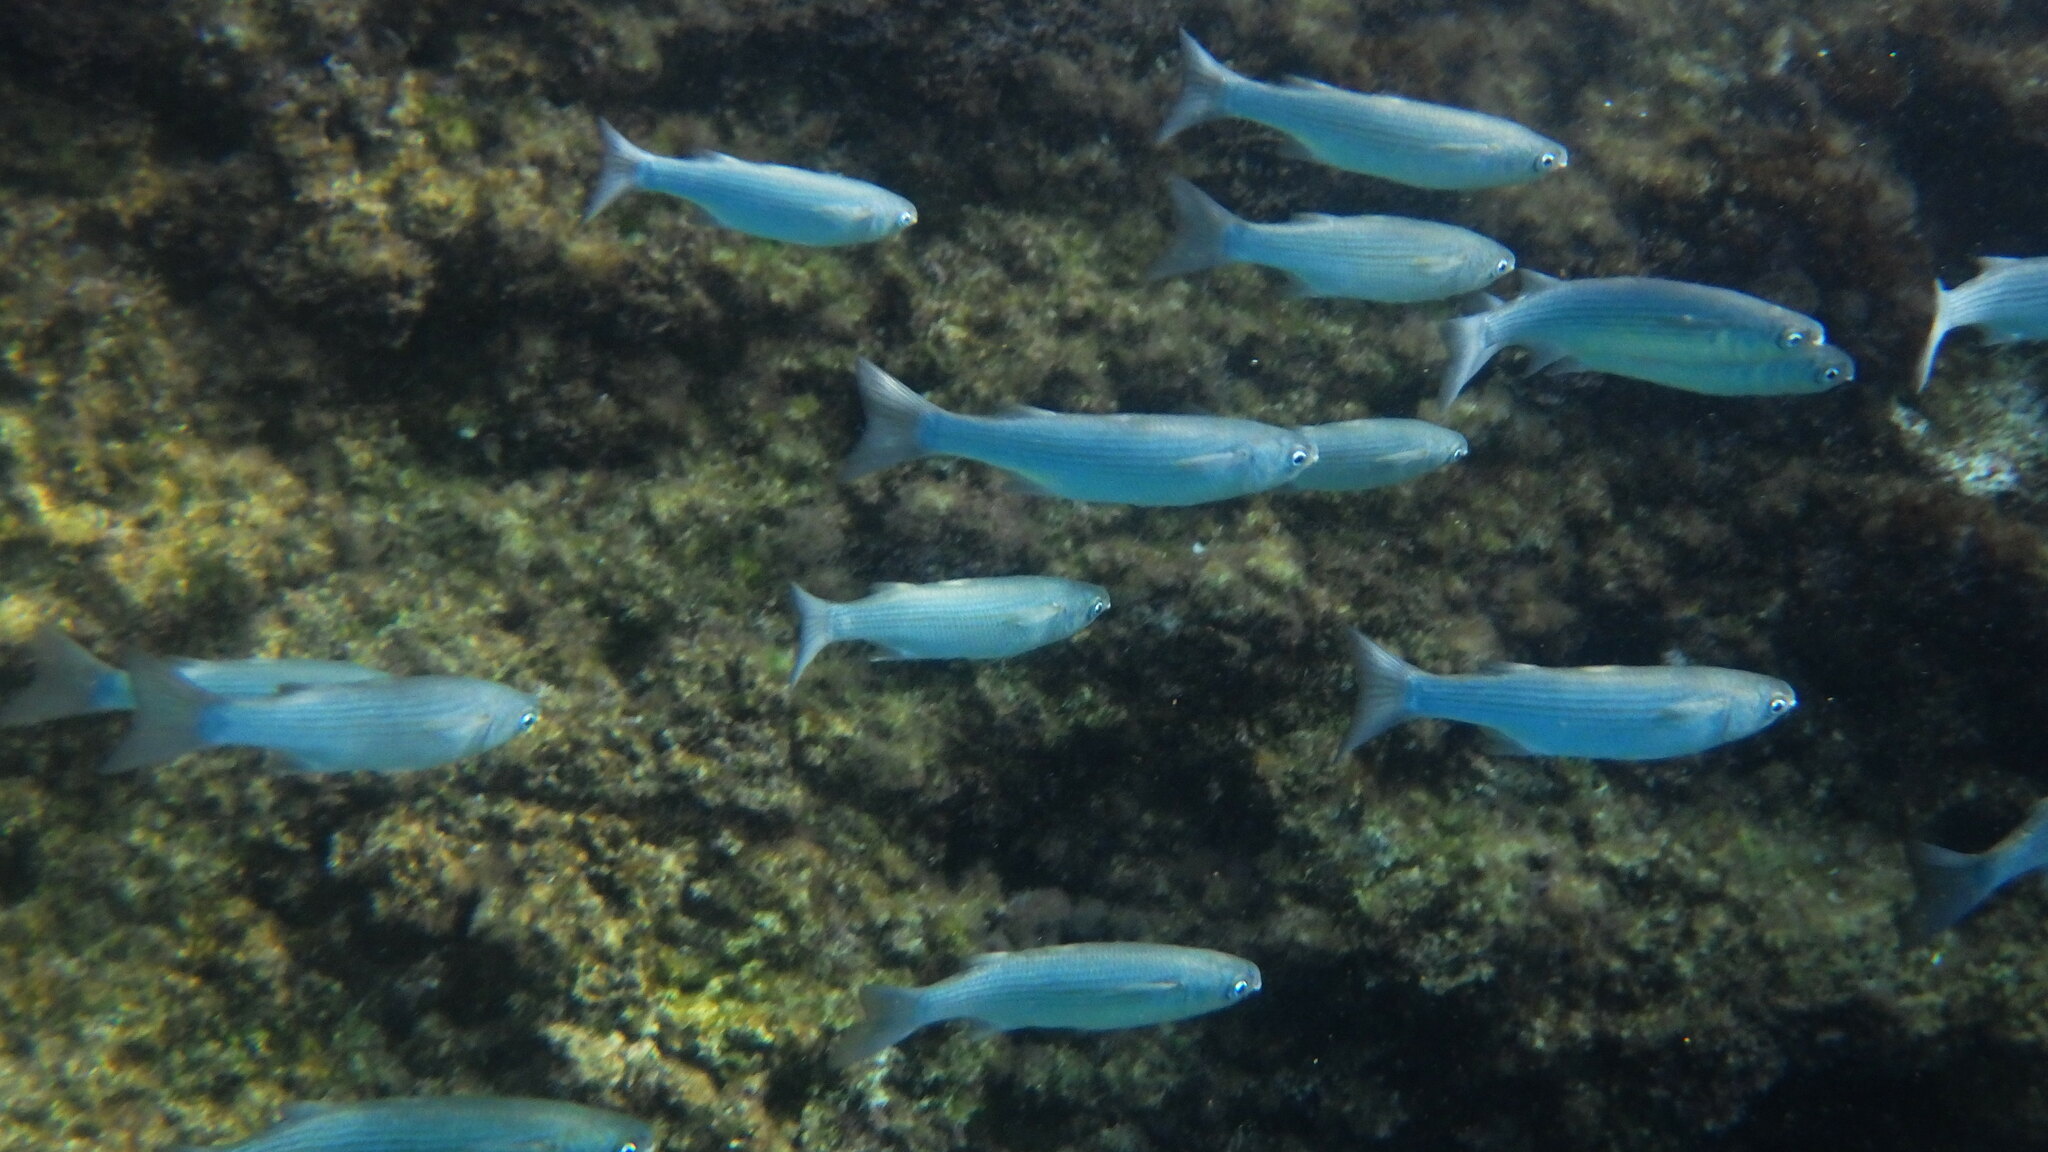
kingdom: Animalia
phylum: Chordata
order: Mugiliformes
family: Mugilidae
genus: Oedalechilus
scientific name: Oedalechilus labeo
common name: Boxlip mullet
